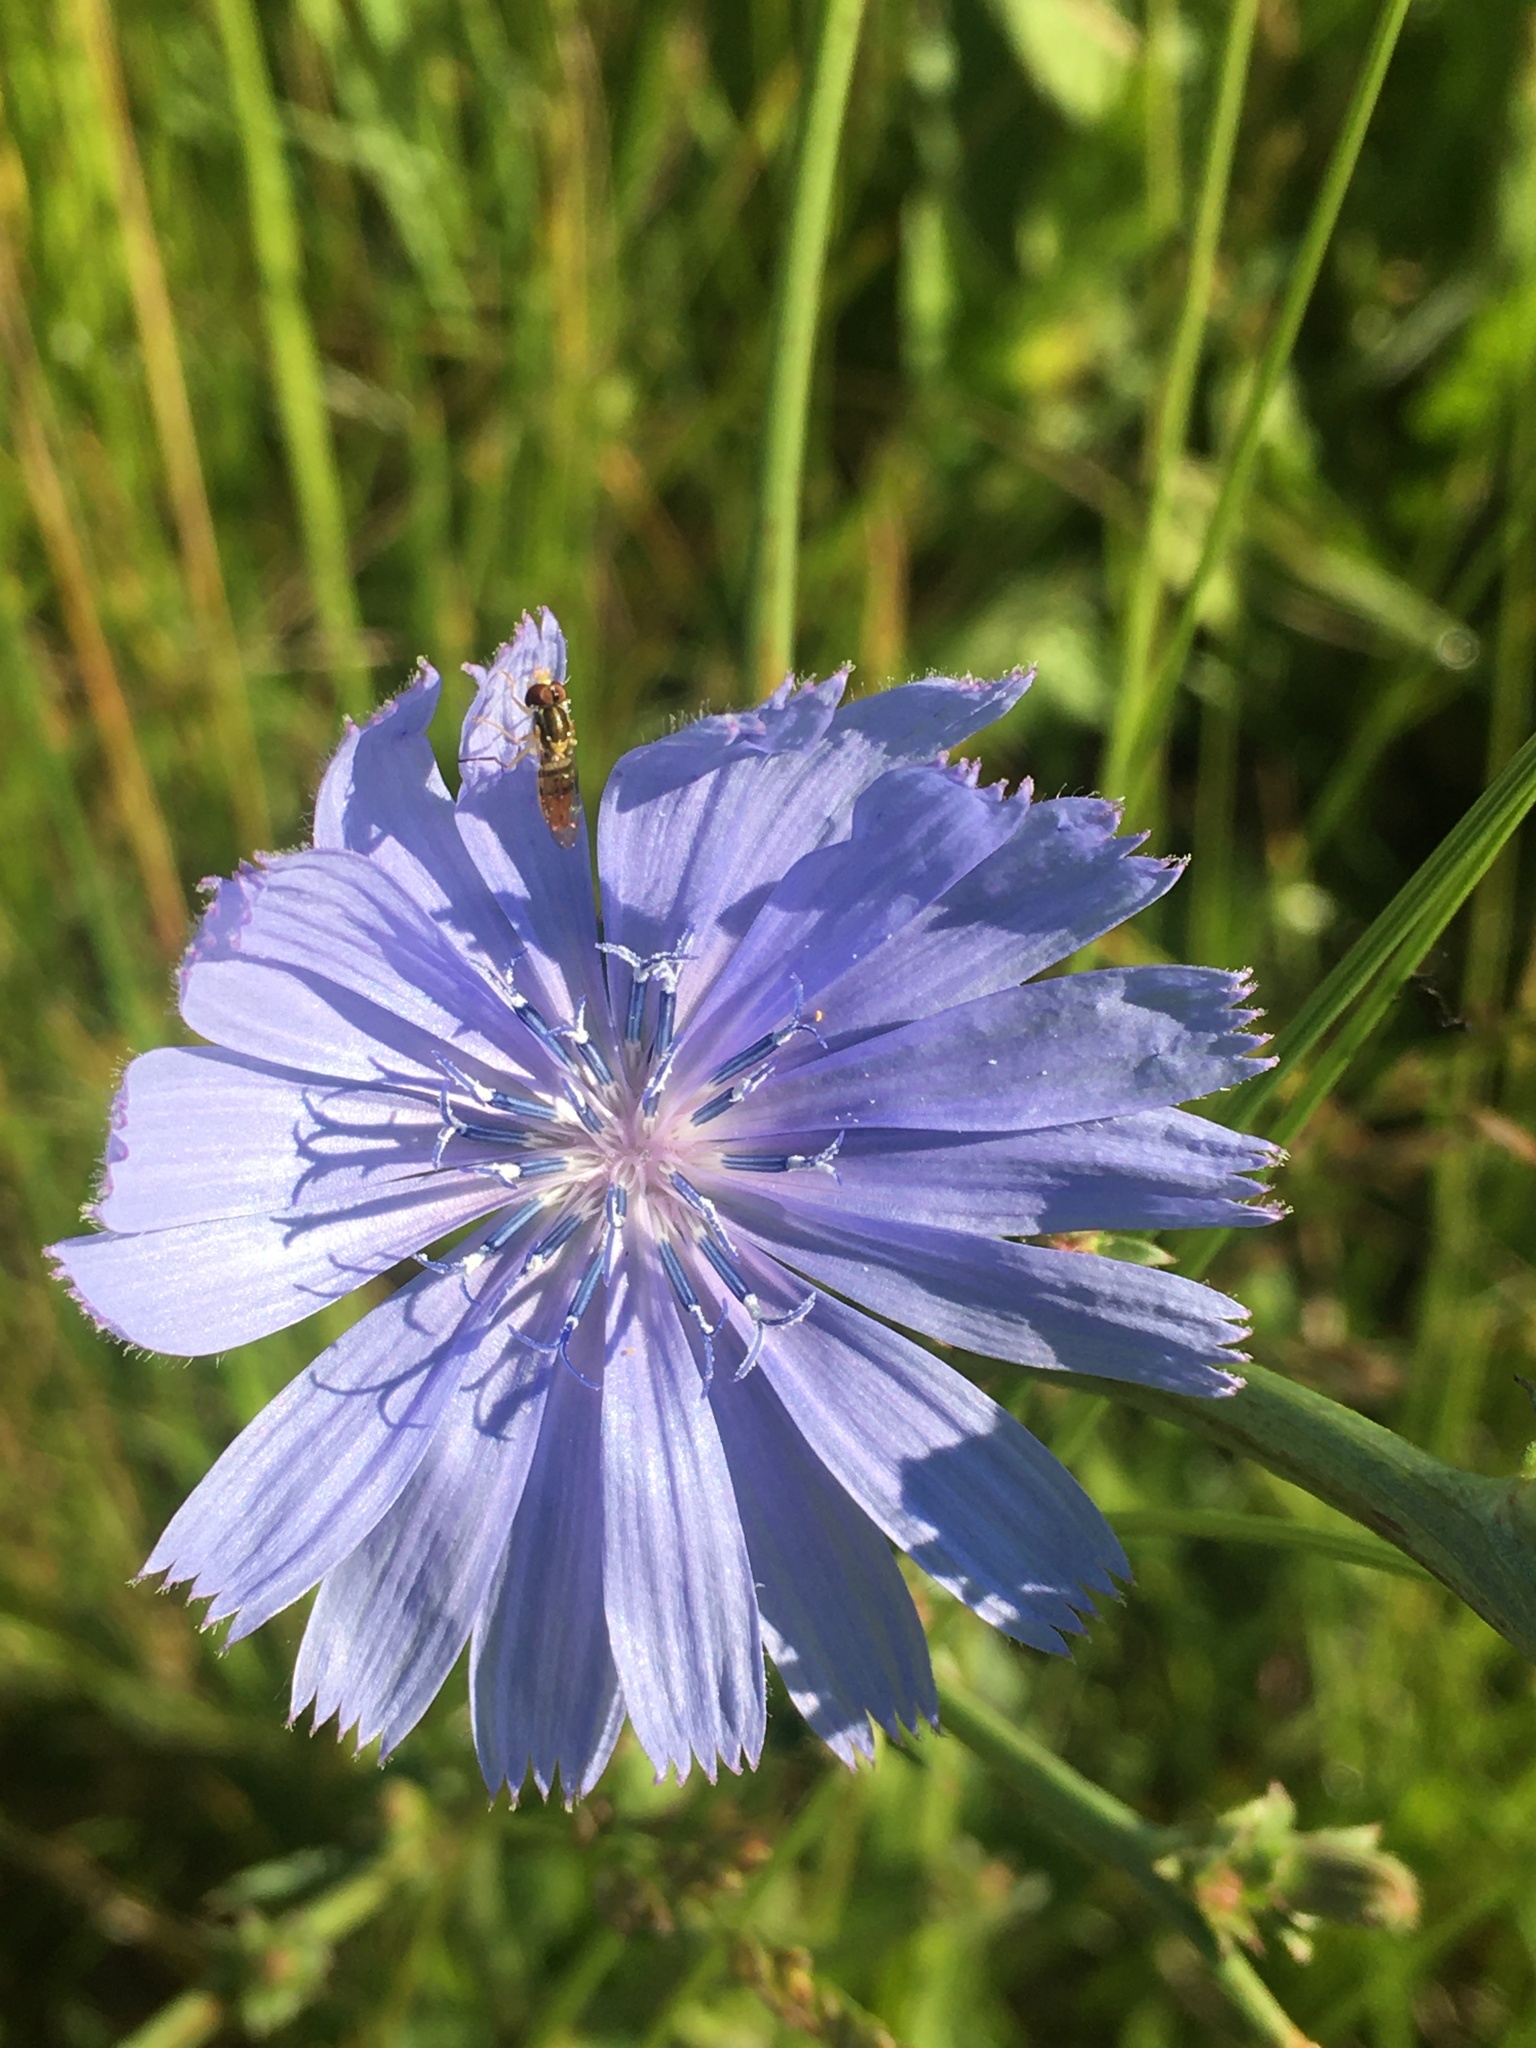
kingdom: Plantae
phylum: Tracheophyta
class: Magnoliopsida
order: Asterales
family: Asteraceae
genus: Cichorium
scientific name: Cichorium intybus
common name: Chicory
